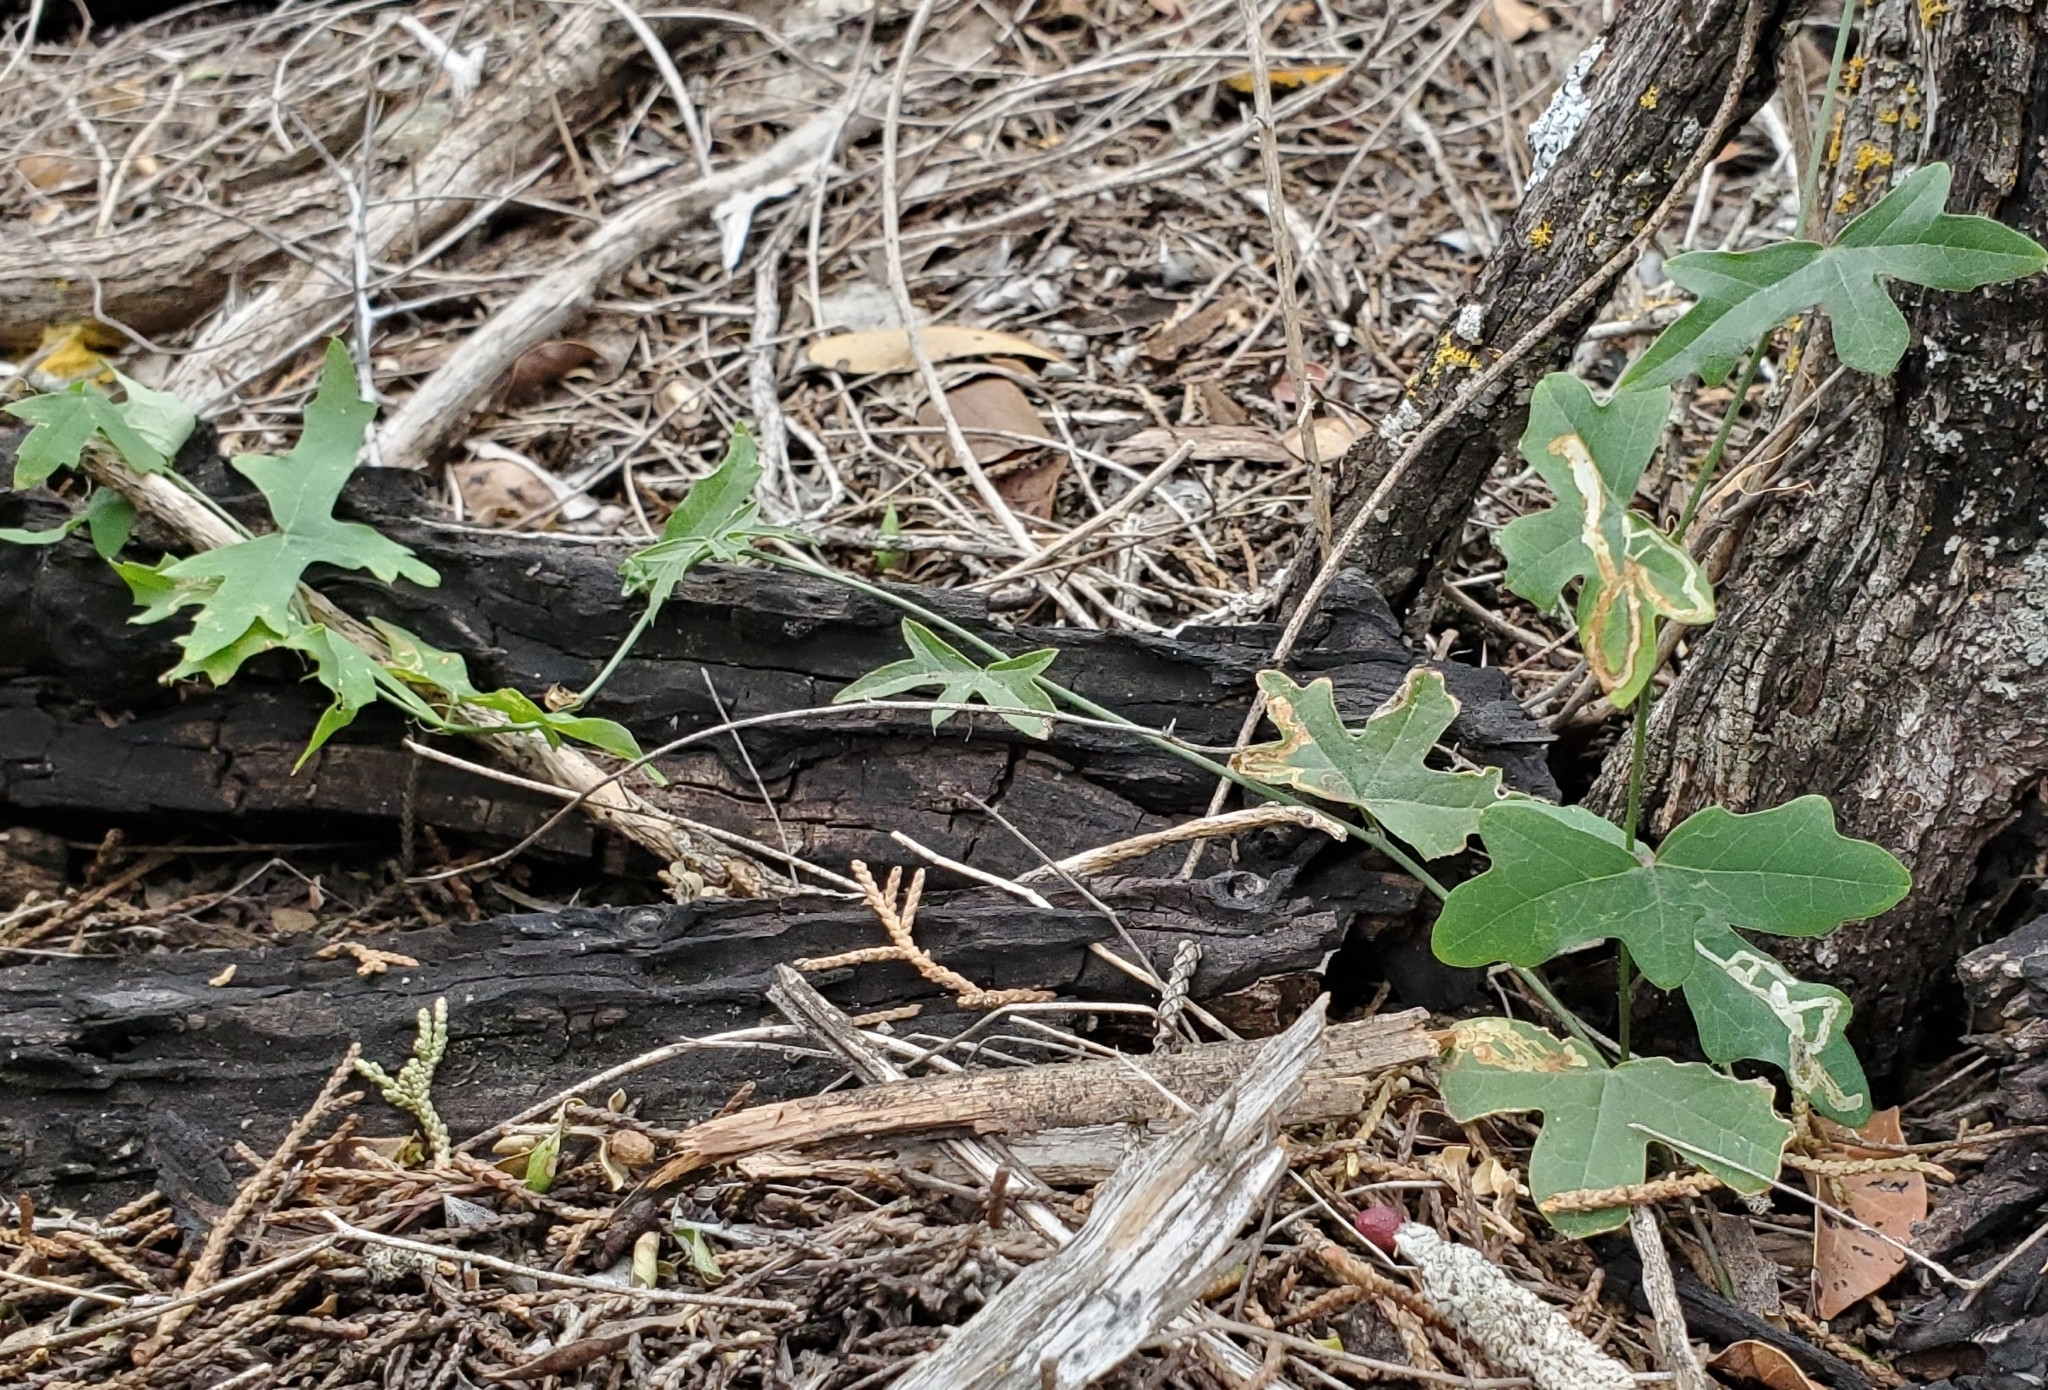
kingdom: Plantae
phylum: Tracheophyta
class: Magnoliopsida
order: Malpighiales
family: Passifloraceae
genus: Passiflora
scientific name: Passiflora tenuiloba
